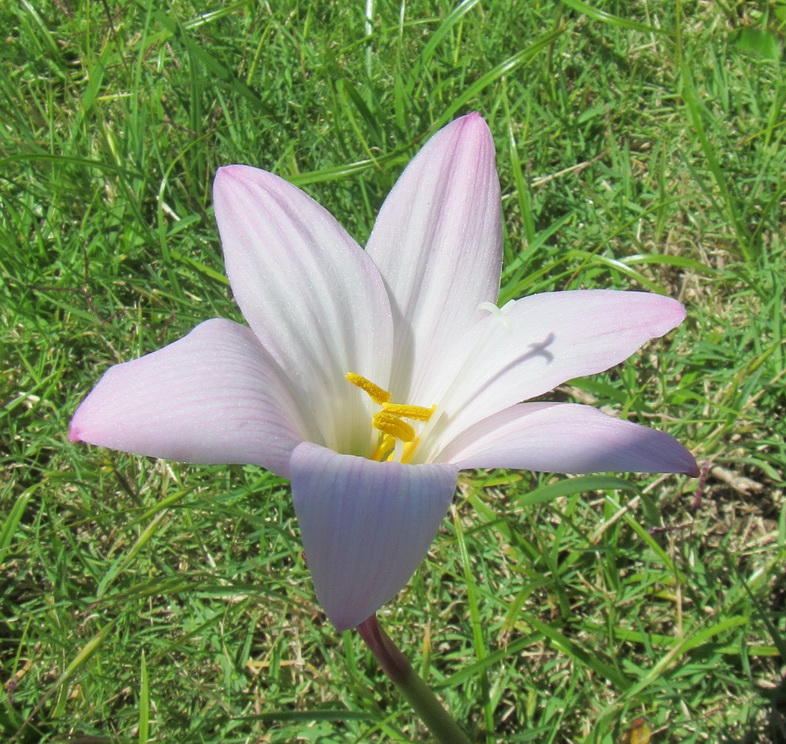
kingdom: Plantae
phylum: Tracheophyta
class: Liliopsida
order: Asparagales
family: Amaryllidaceae
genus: Zephyranthes
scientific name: Zephyranthes robusta
